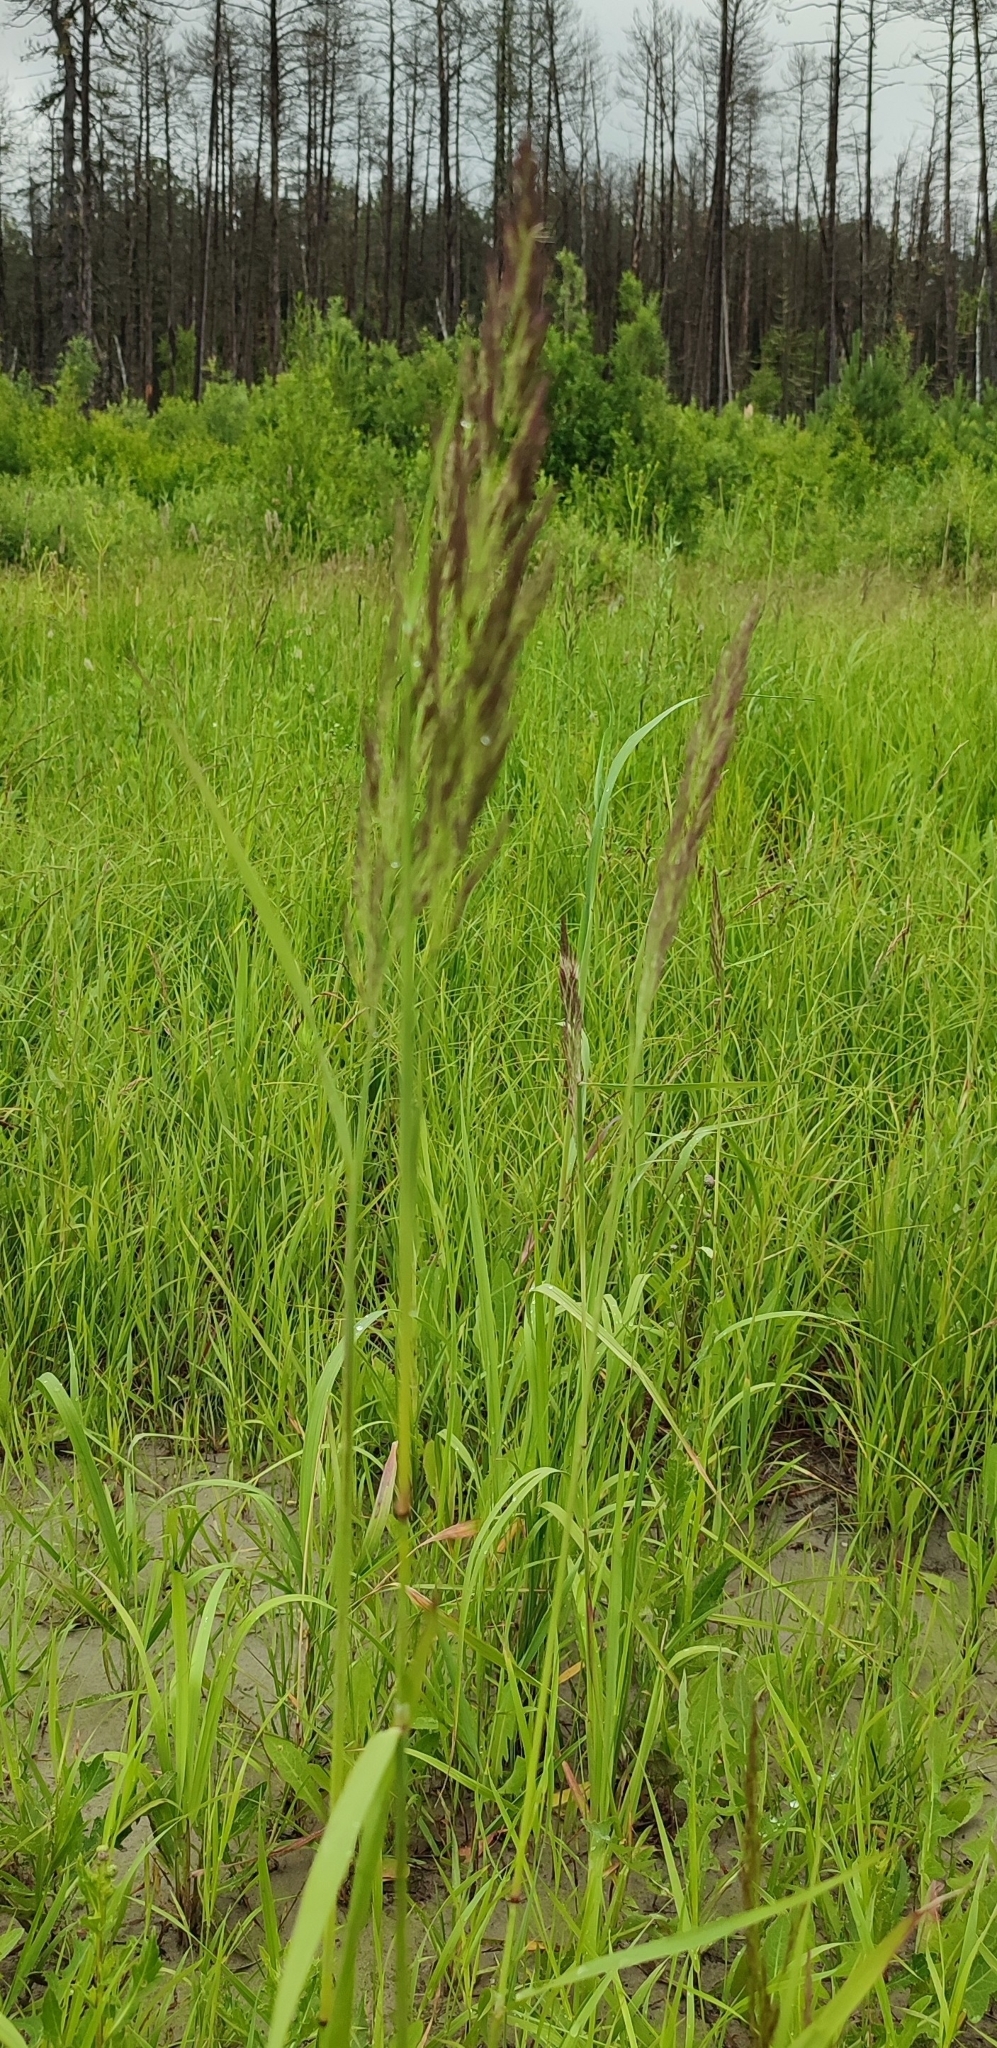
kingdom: Plantae
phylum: Tracheophyta
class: Liliopsida
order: Poales
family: Poaceae
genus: Calamagrostis
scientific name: Calamagrostis epigejos
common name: Wood small-reed
